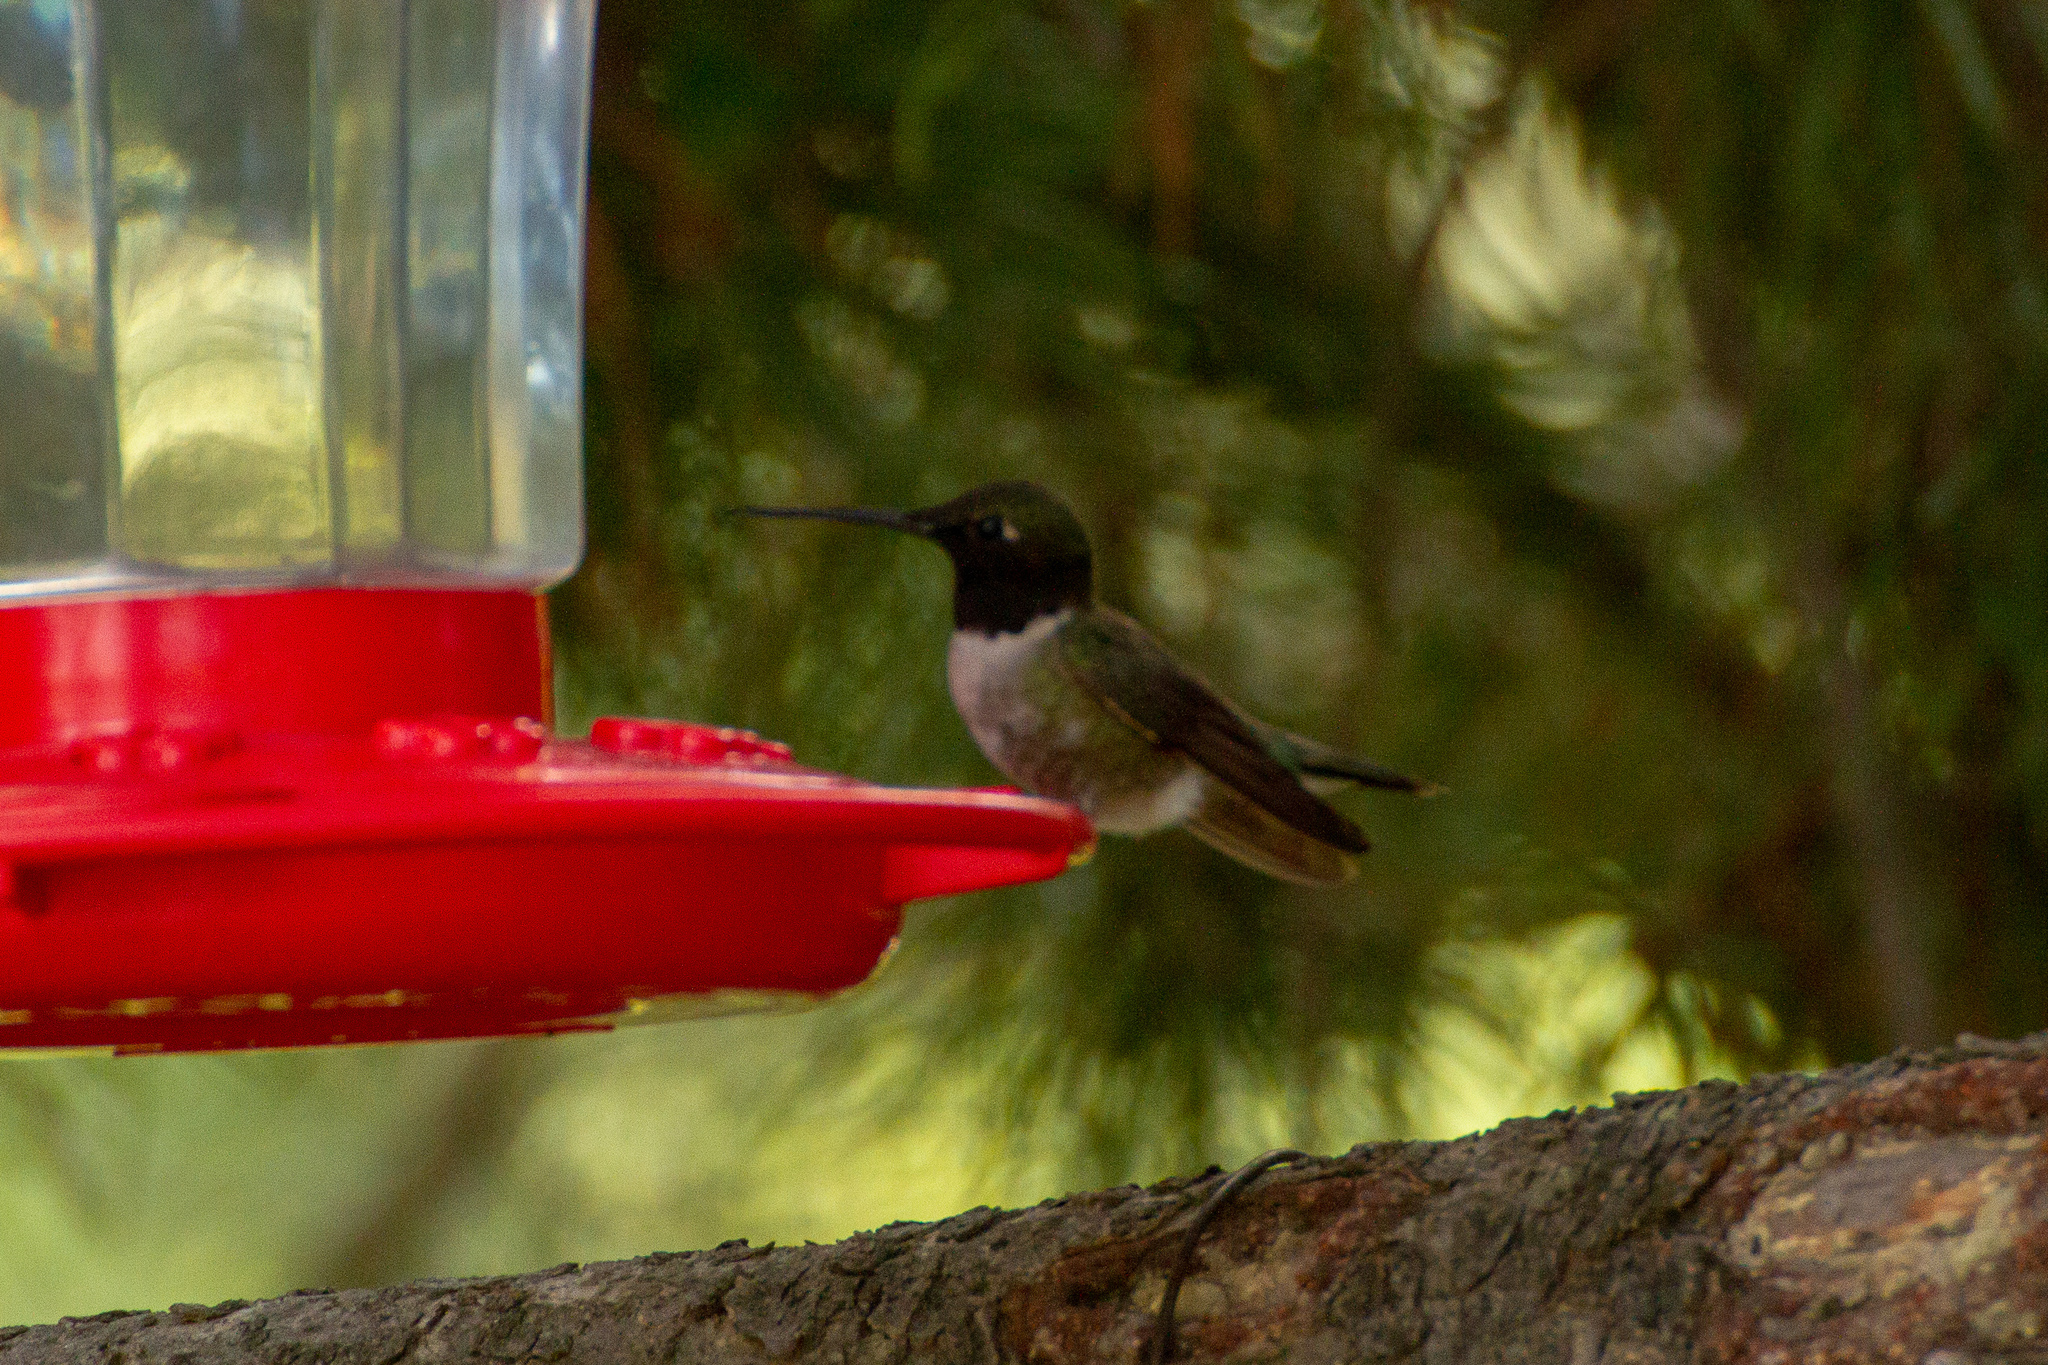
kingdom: Animalia
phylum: Chordata
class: Aves
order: Apodiformes
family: Trochilidae
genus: Archilochus
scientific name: Archilochus alexandri
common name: Black-chinned hummingbird
